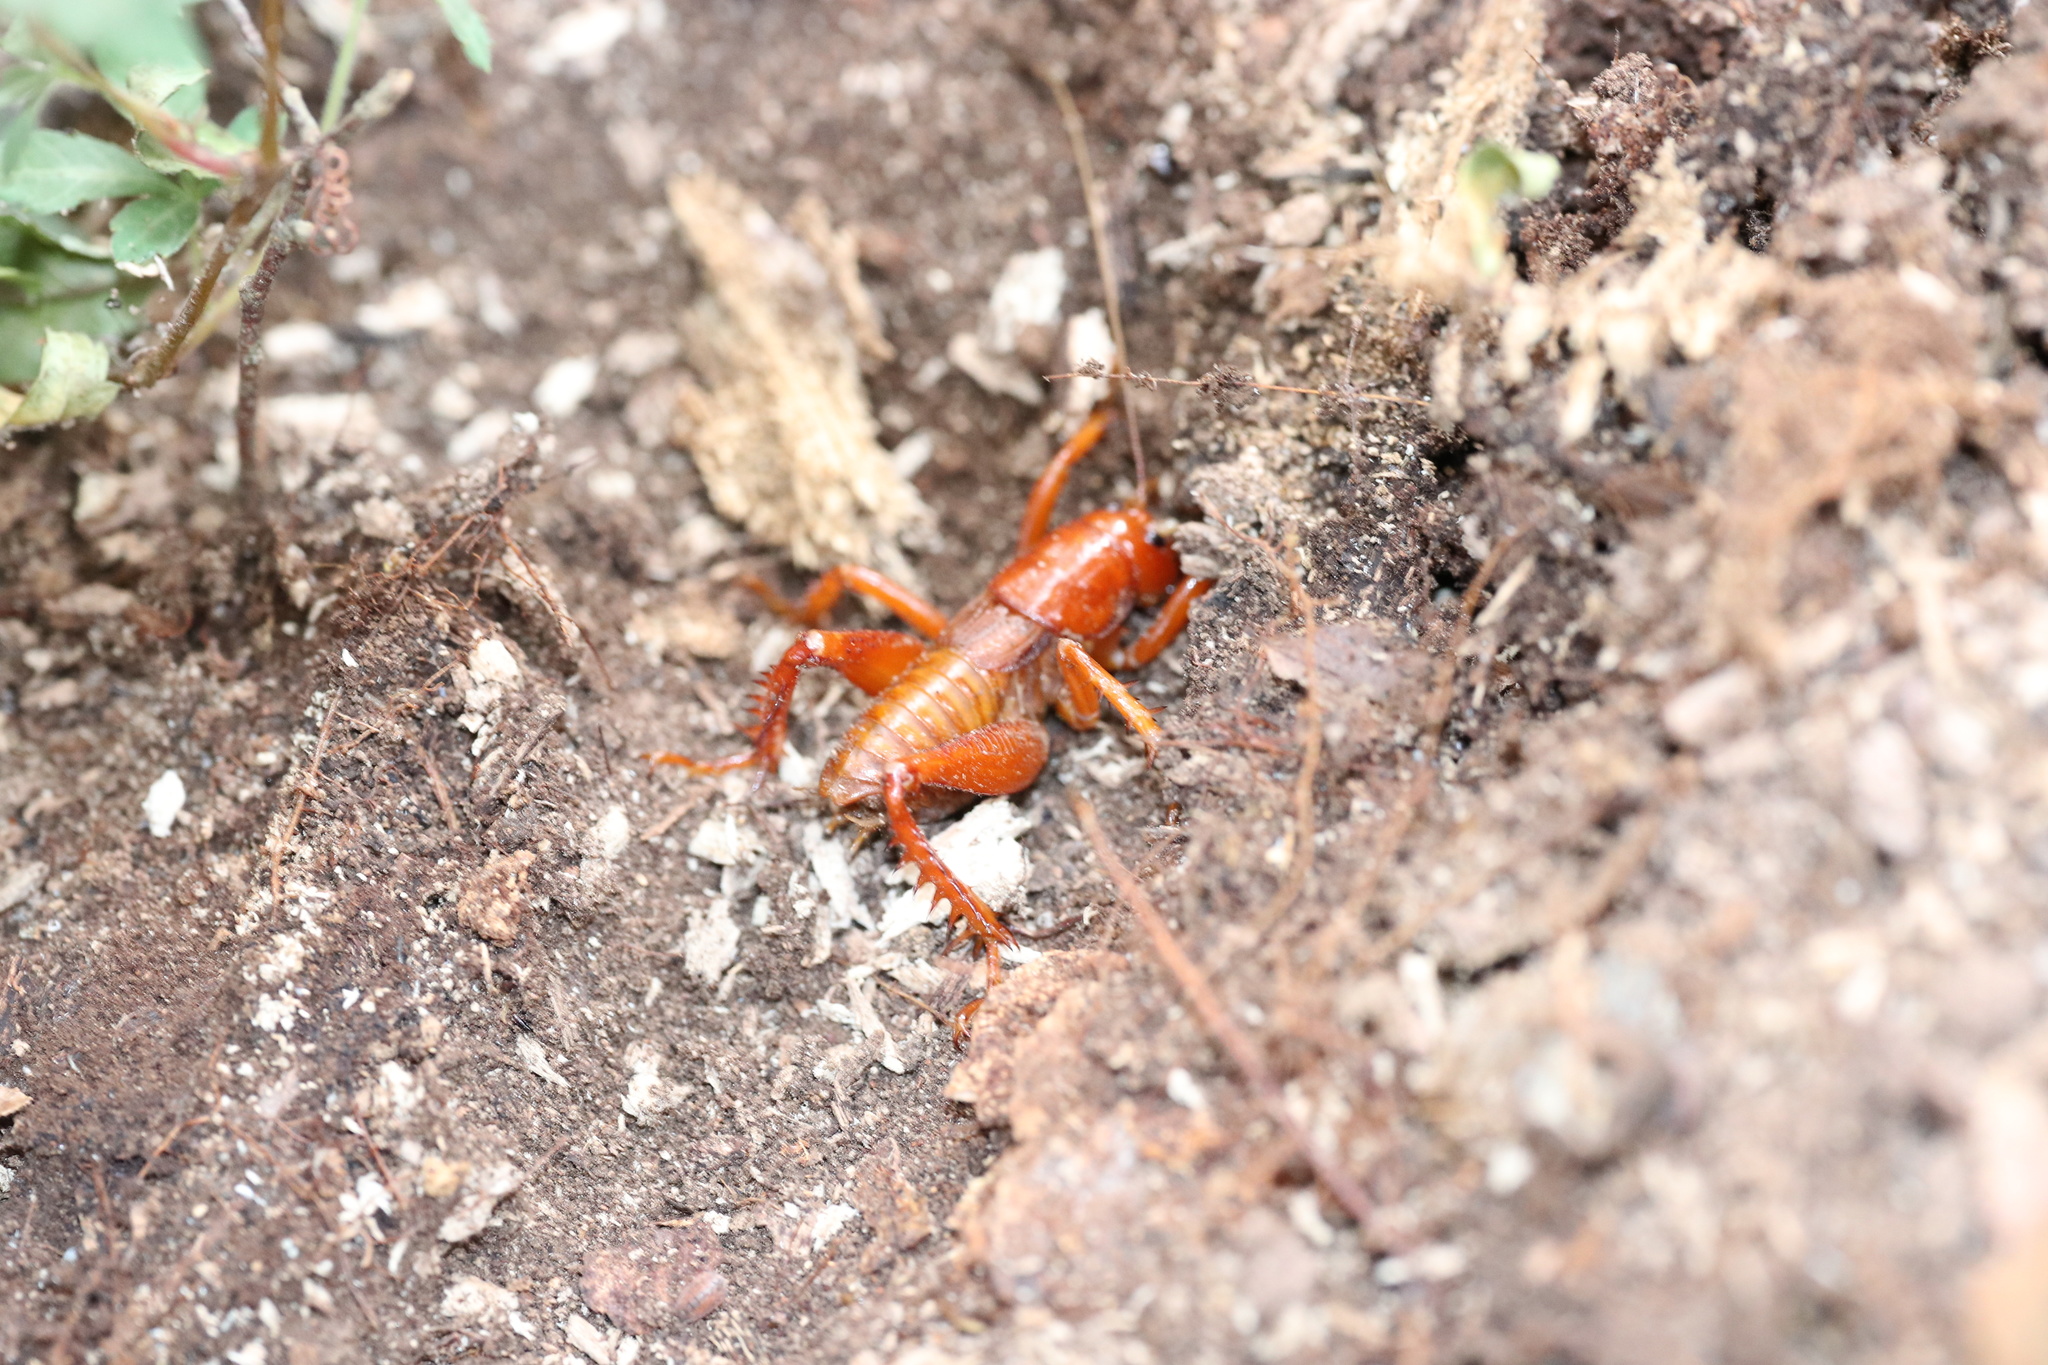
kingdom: Animalia
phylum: Arthropoda
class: Insecta
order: Orthoptera
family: Anostostomatidae
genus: Cratomelus
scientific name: Cratomelus armatus
